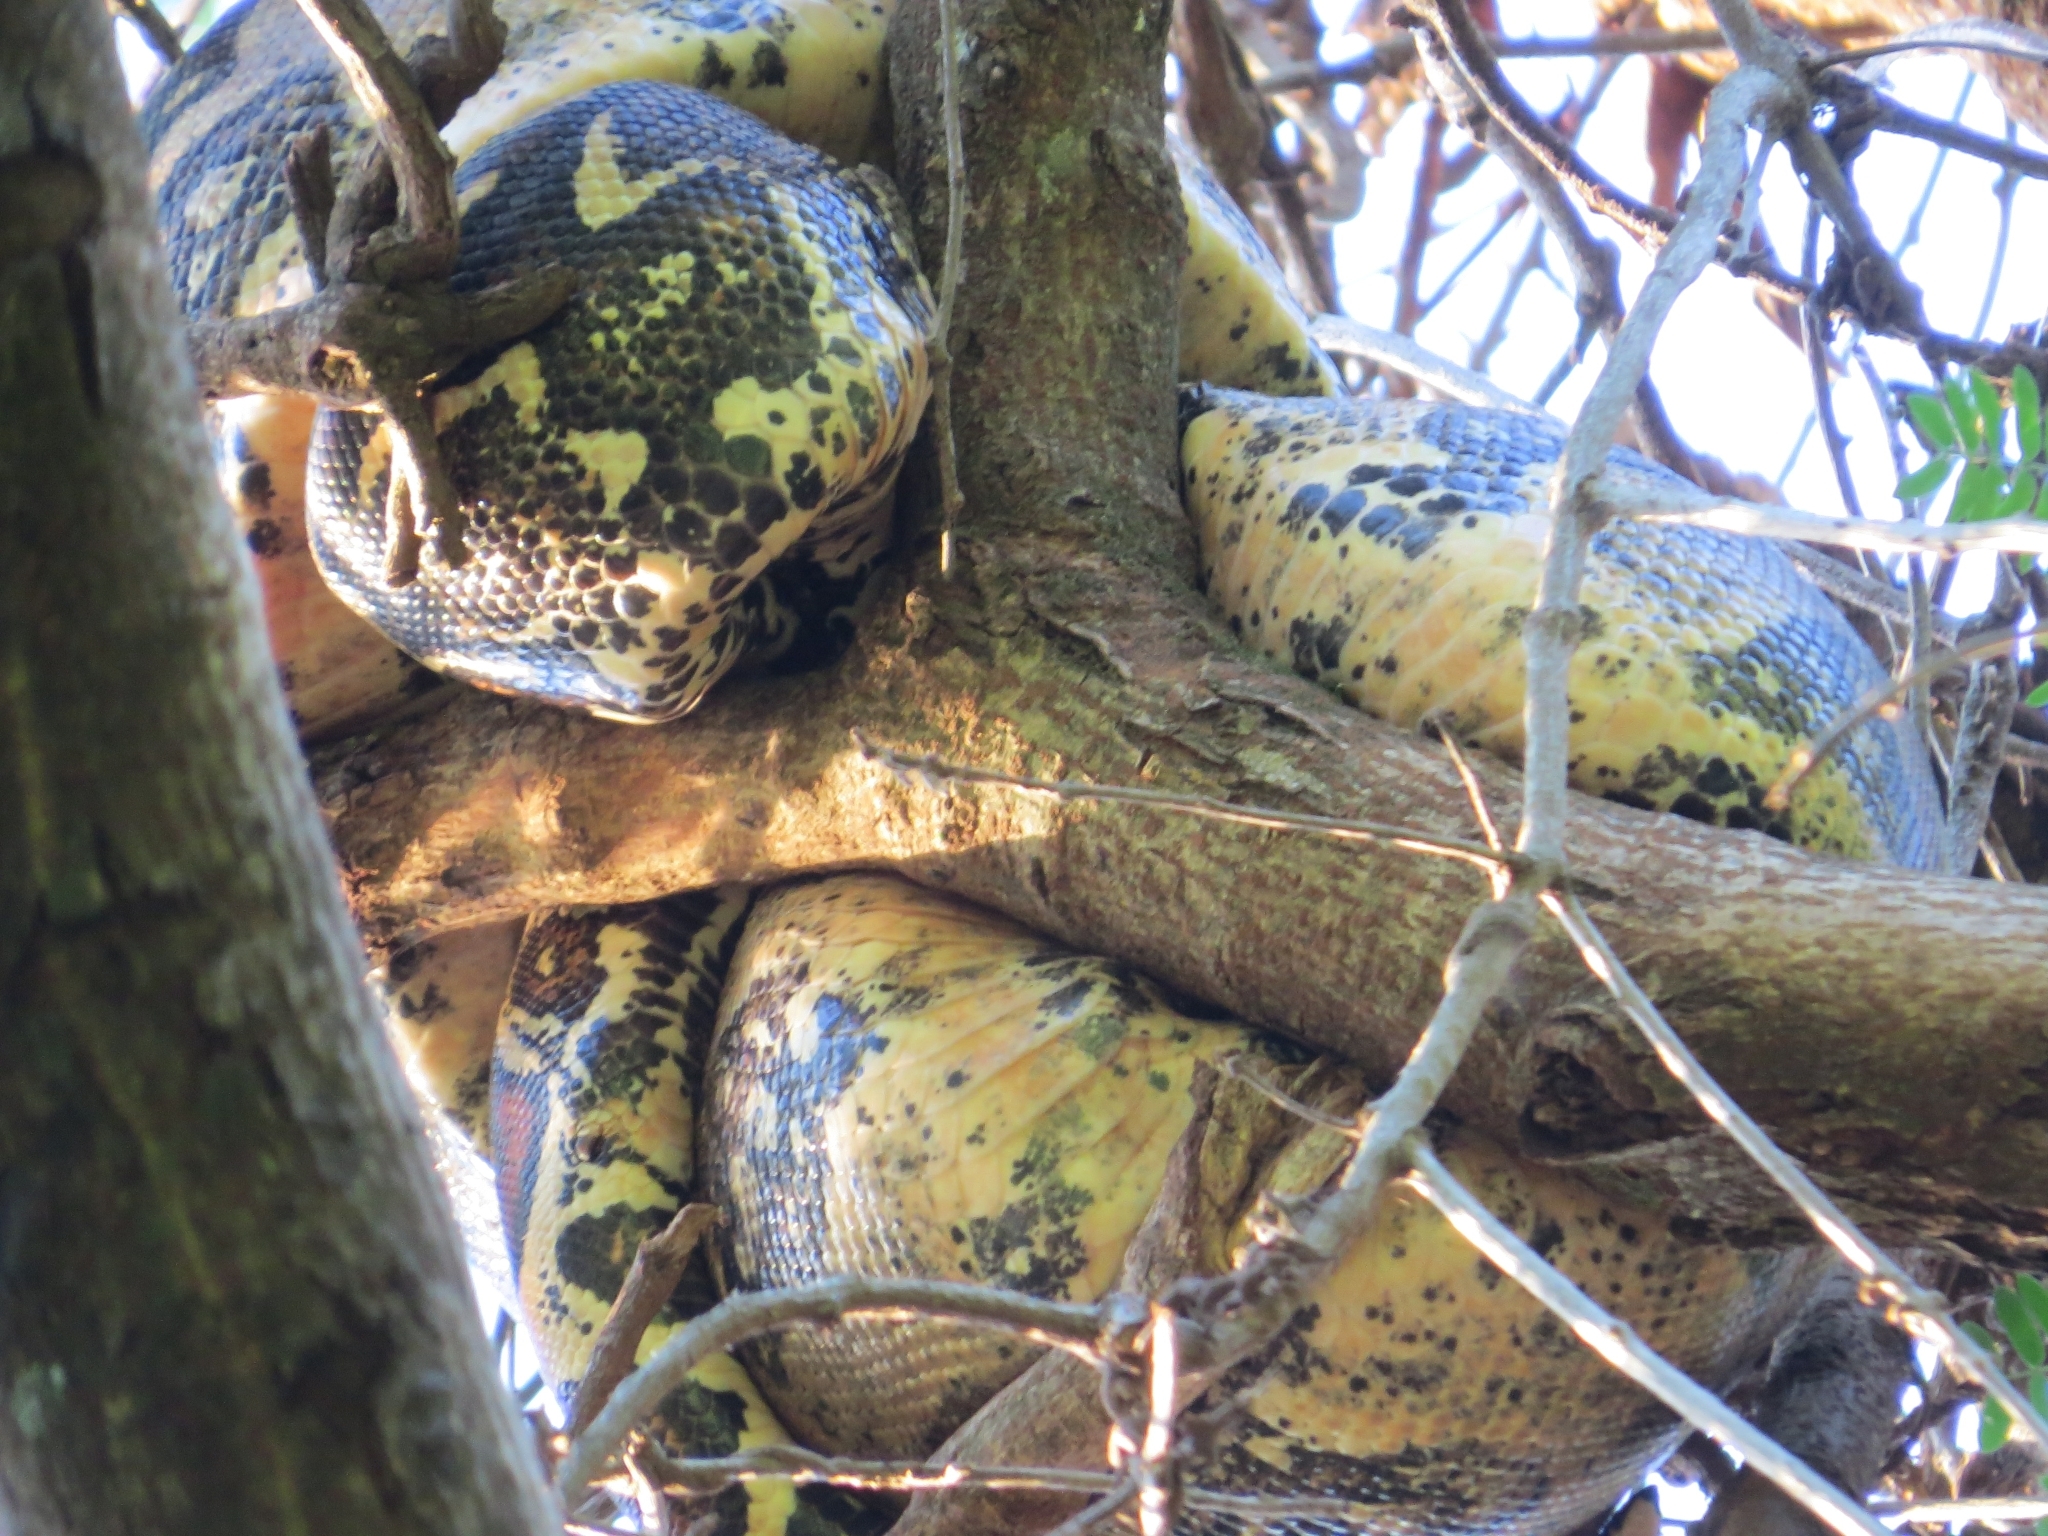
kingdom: Animalia
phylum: Chordata
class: Squamata
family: Boidae
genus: Boa
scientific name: Boa constrictor
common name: Boa constrictor
